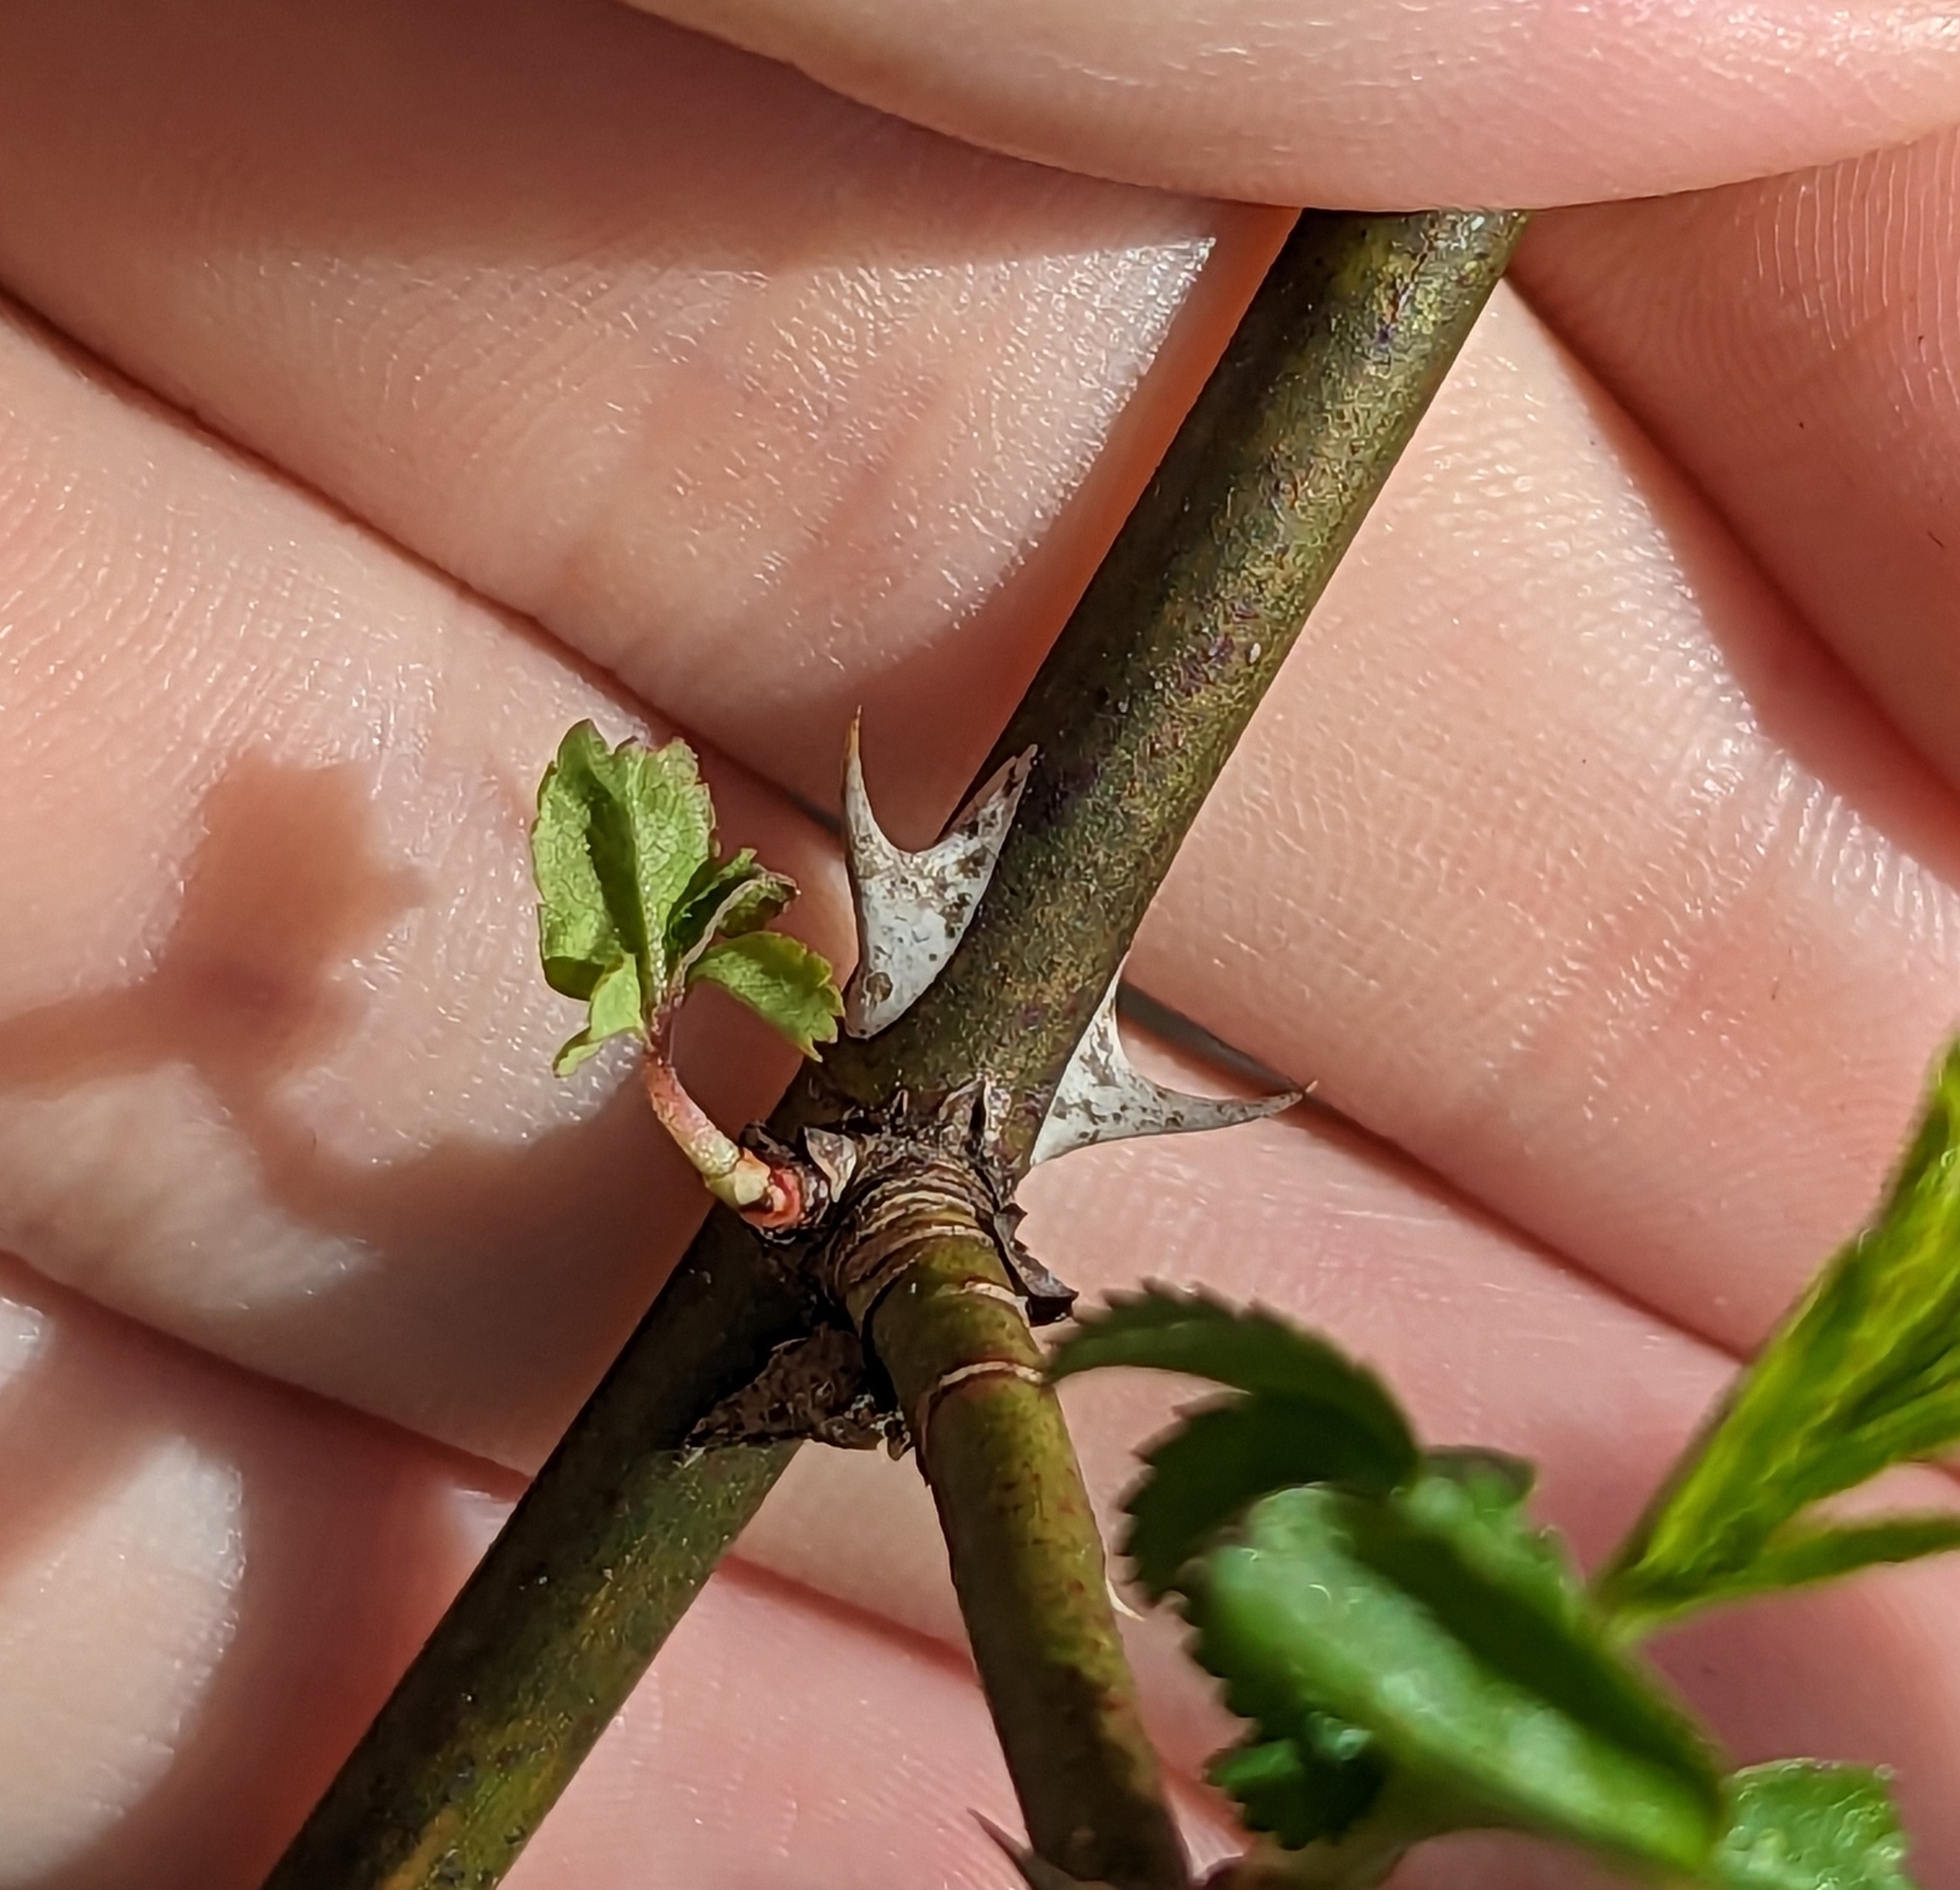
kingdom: Plantae
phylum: Tracheophyta
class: Magnoliopsida
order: Rosales
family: Rosaceae
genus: Rosa
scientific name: Rosa multiflora
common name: Multiflora rose
